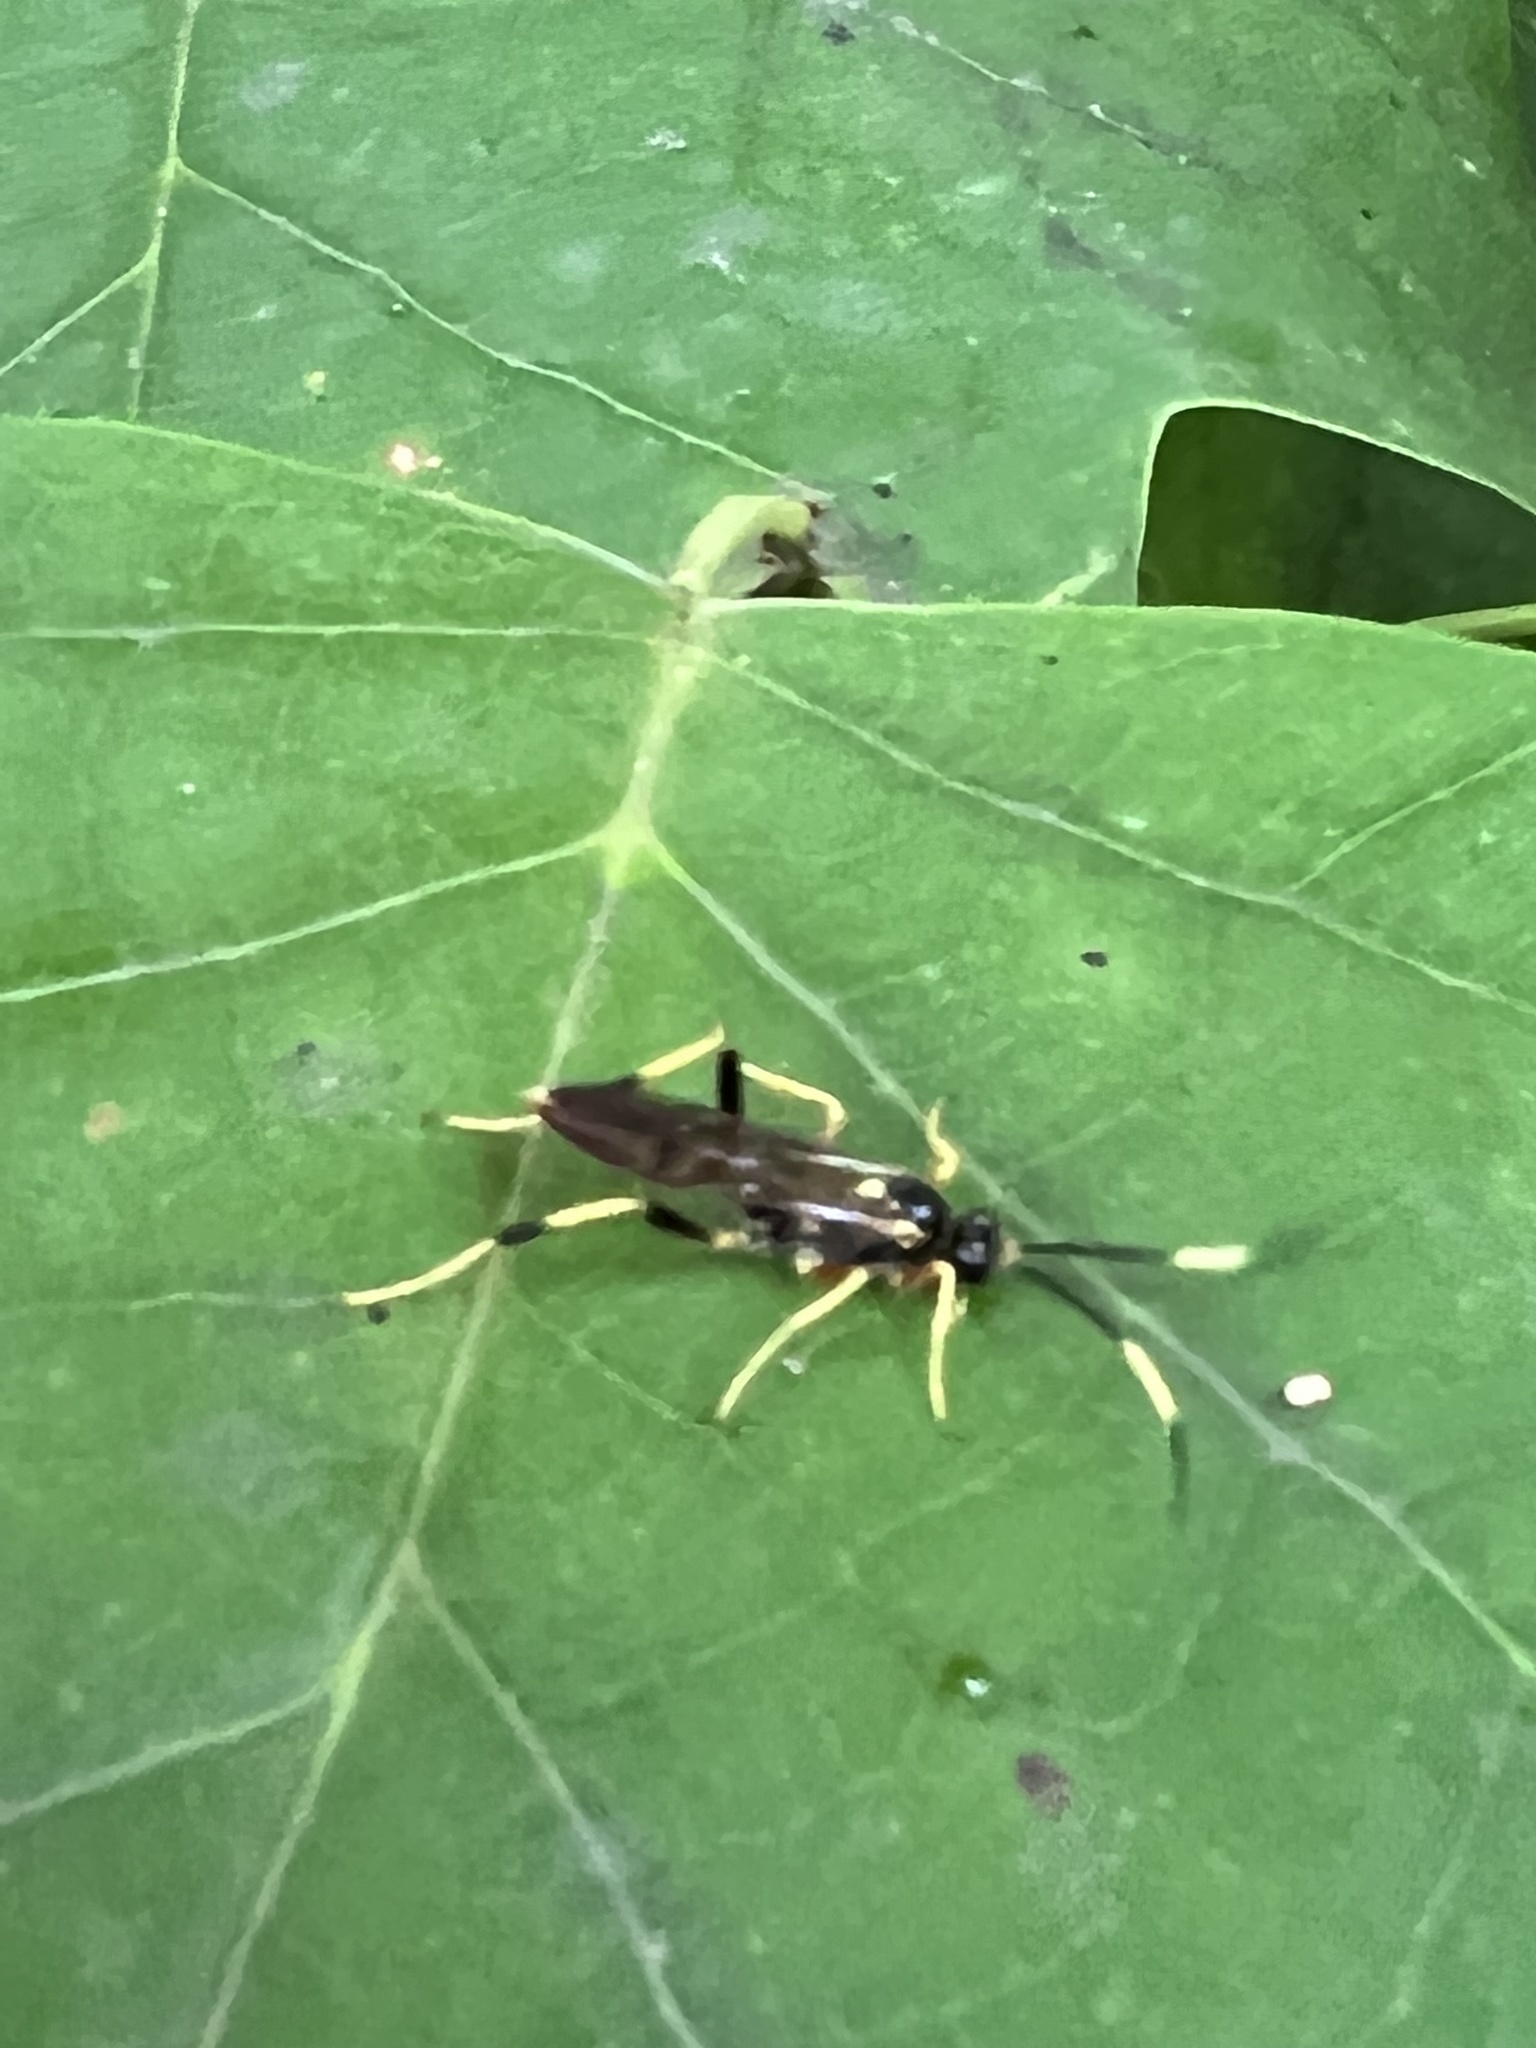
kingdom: Animalia
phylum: Arthropoda
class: Insecta
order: Hymenoptera
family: Ichneumonidae
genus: Polytribax
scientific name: Polytribax contiguus
